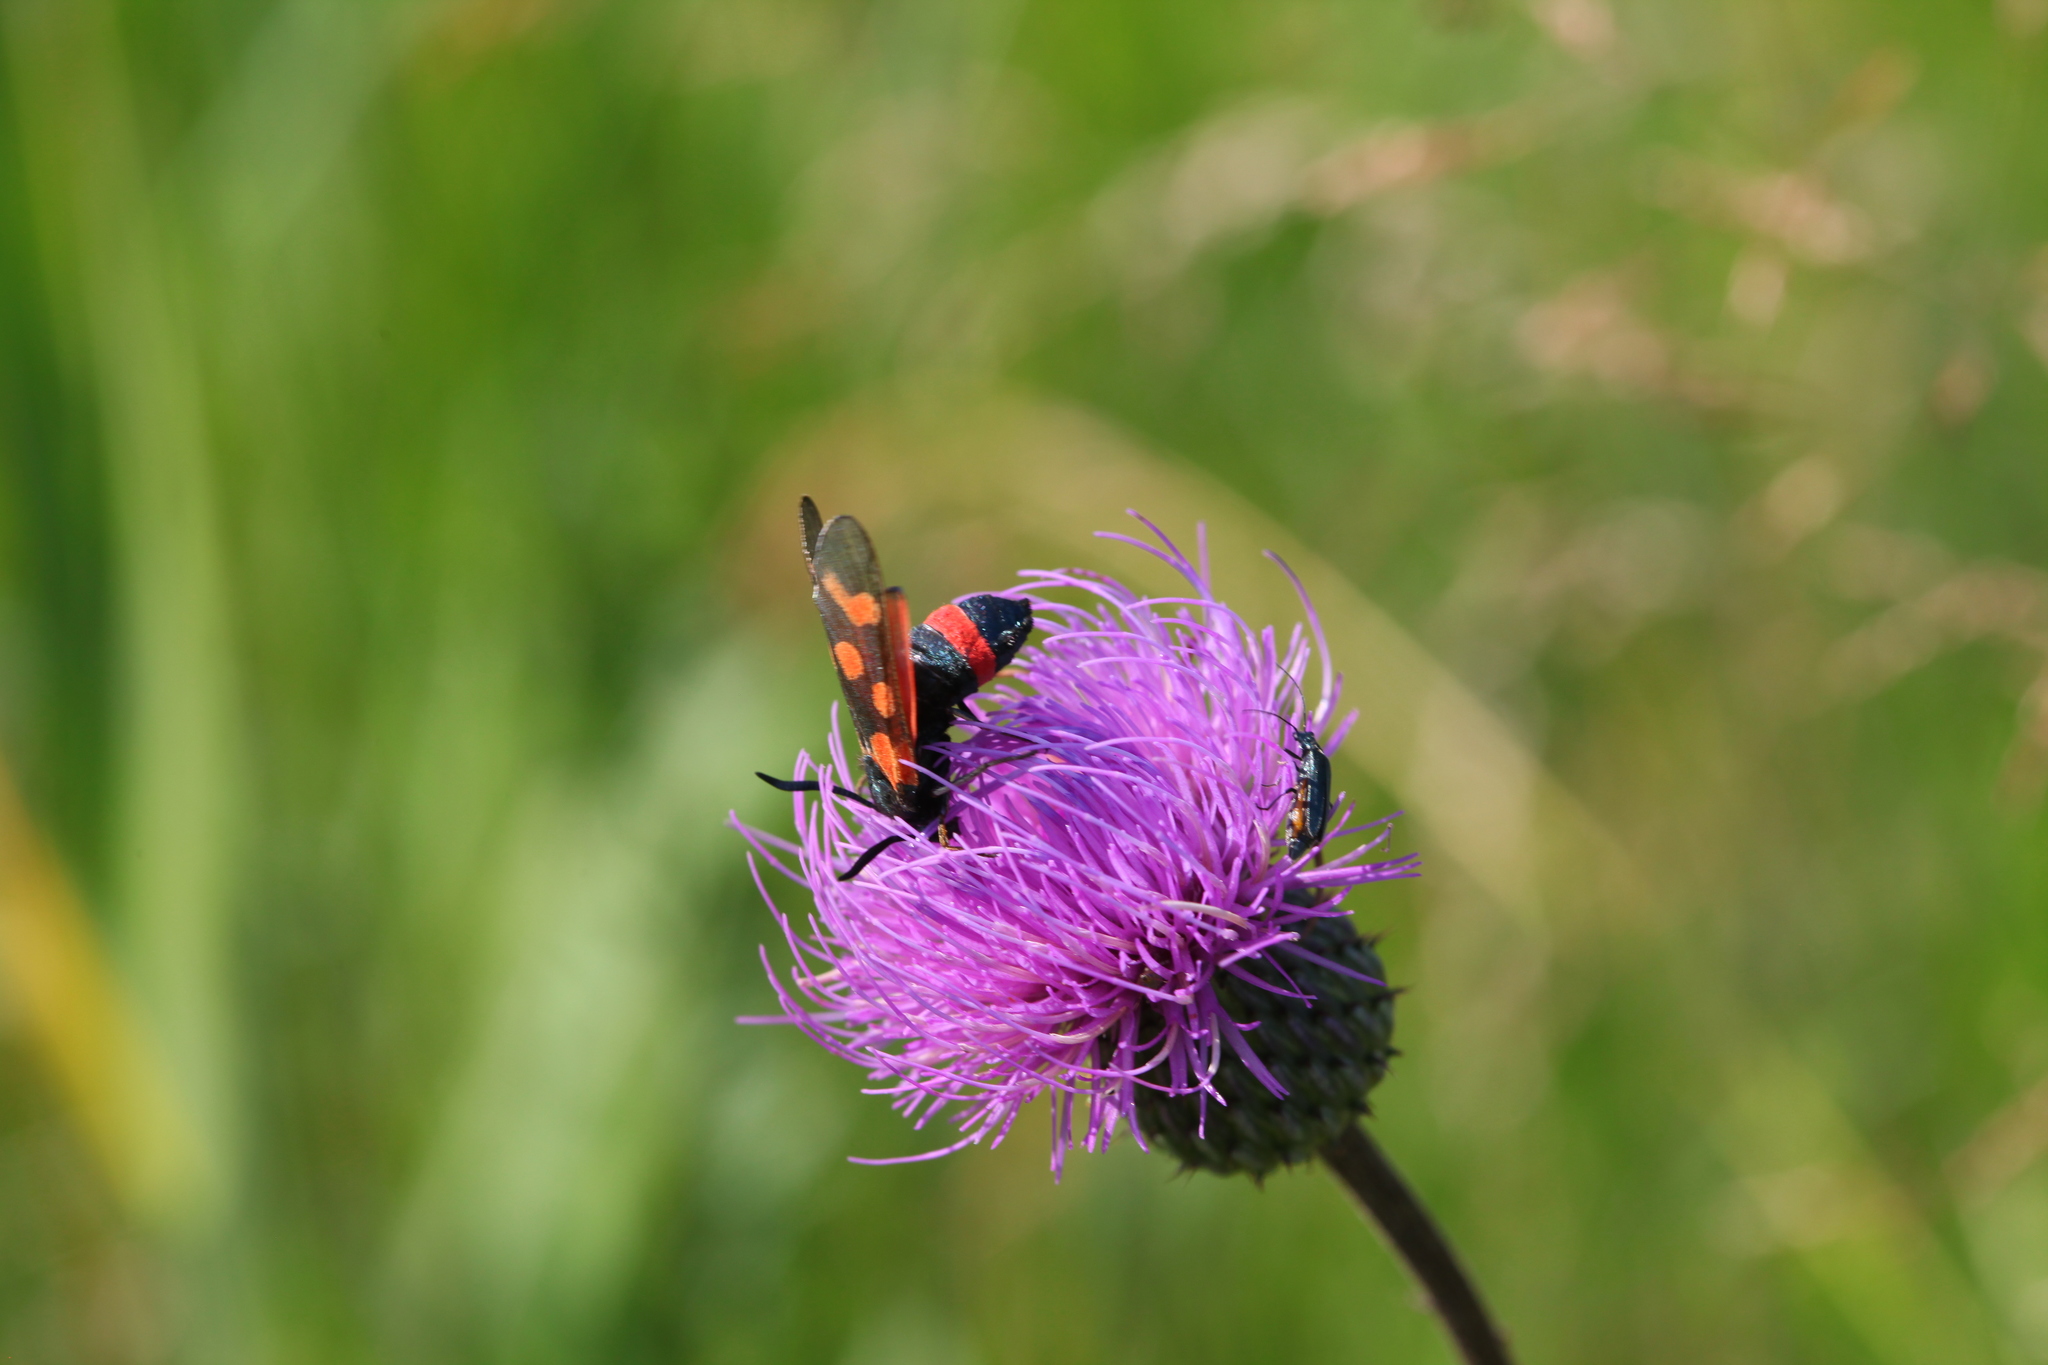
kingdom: Animalia
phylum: Arthropoda
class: Insecta
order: Lepidoptera
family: Zygaenidae
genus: Zygaena
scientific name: Zygaena centaureae
